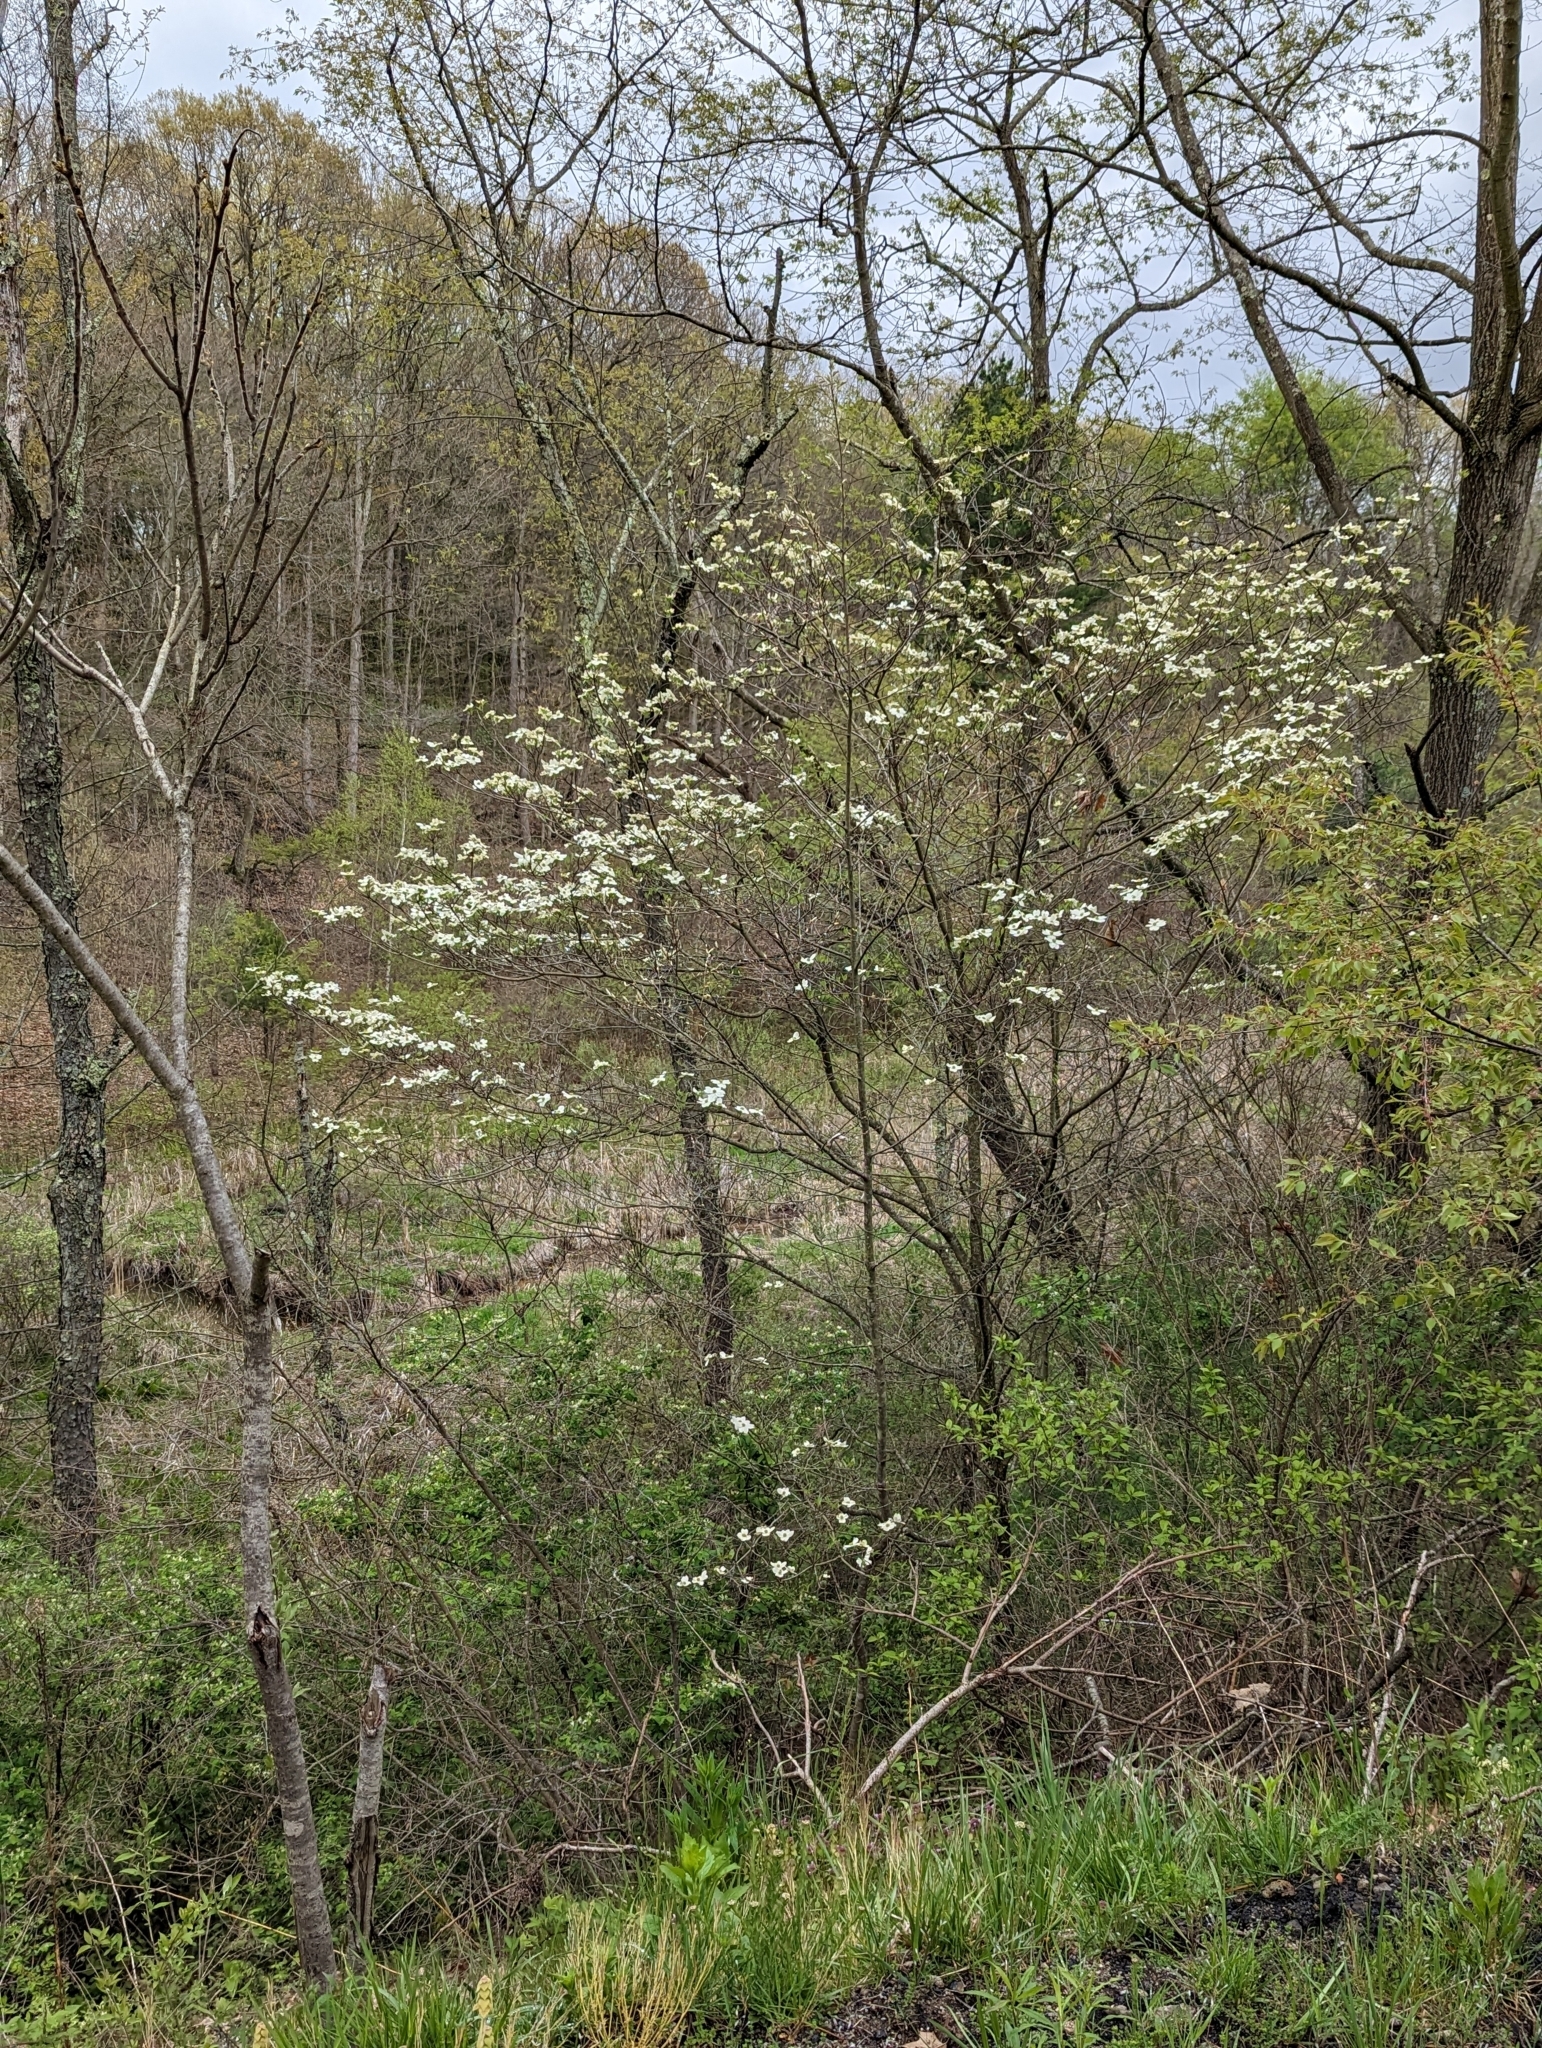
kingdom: Plantae
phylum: Tracheophyta
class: Magnoliopsida
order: Cornales
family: Cornaceae
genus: Cornus
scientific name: Cornus florida
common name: Flowering dogwood
